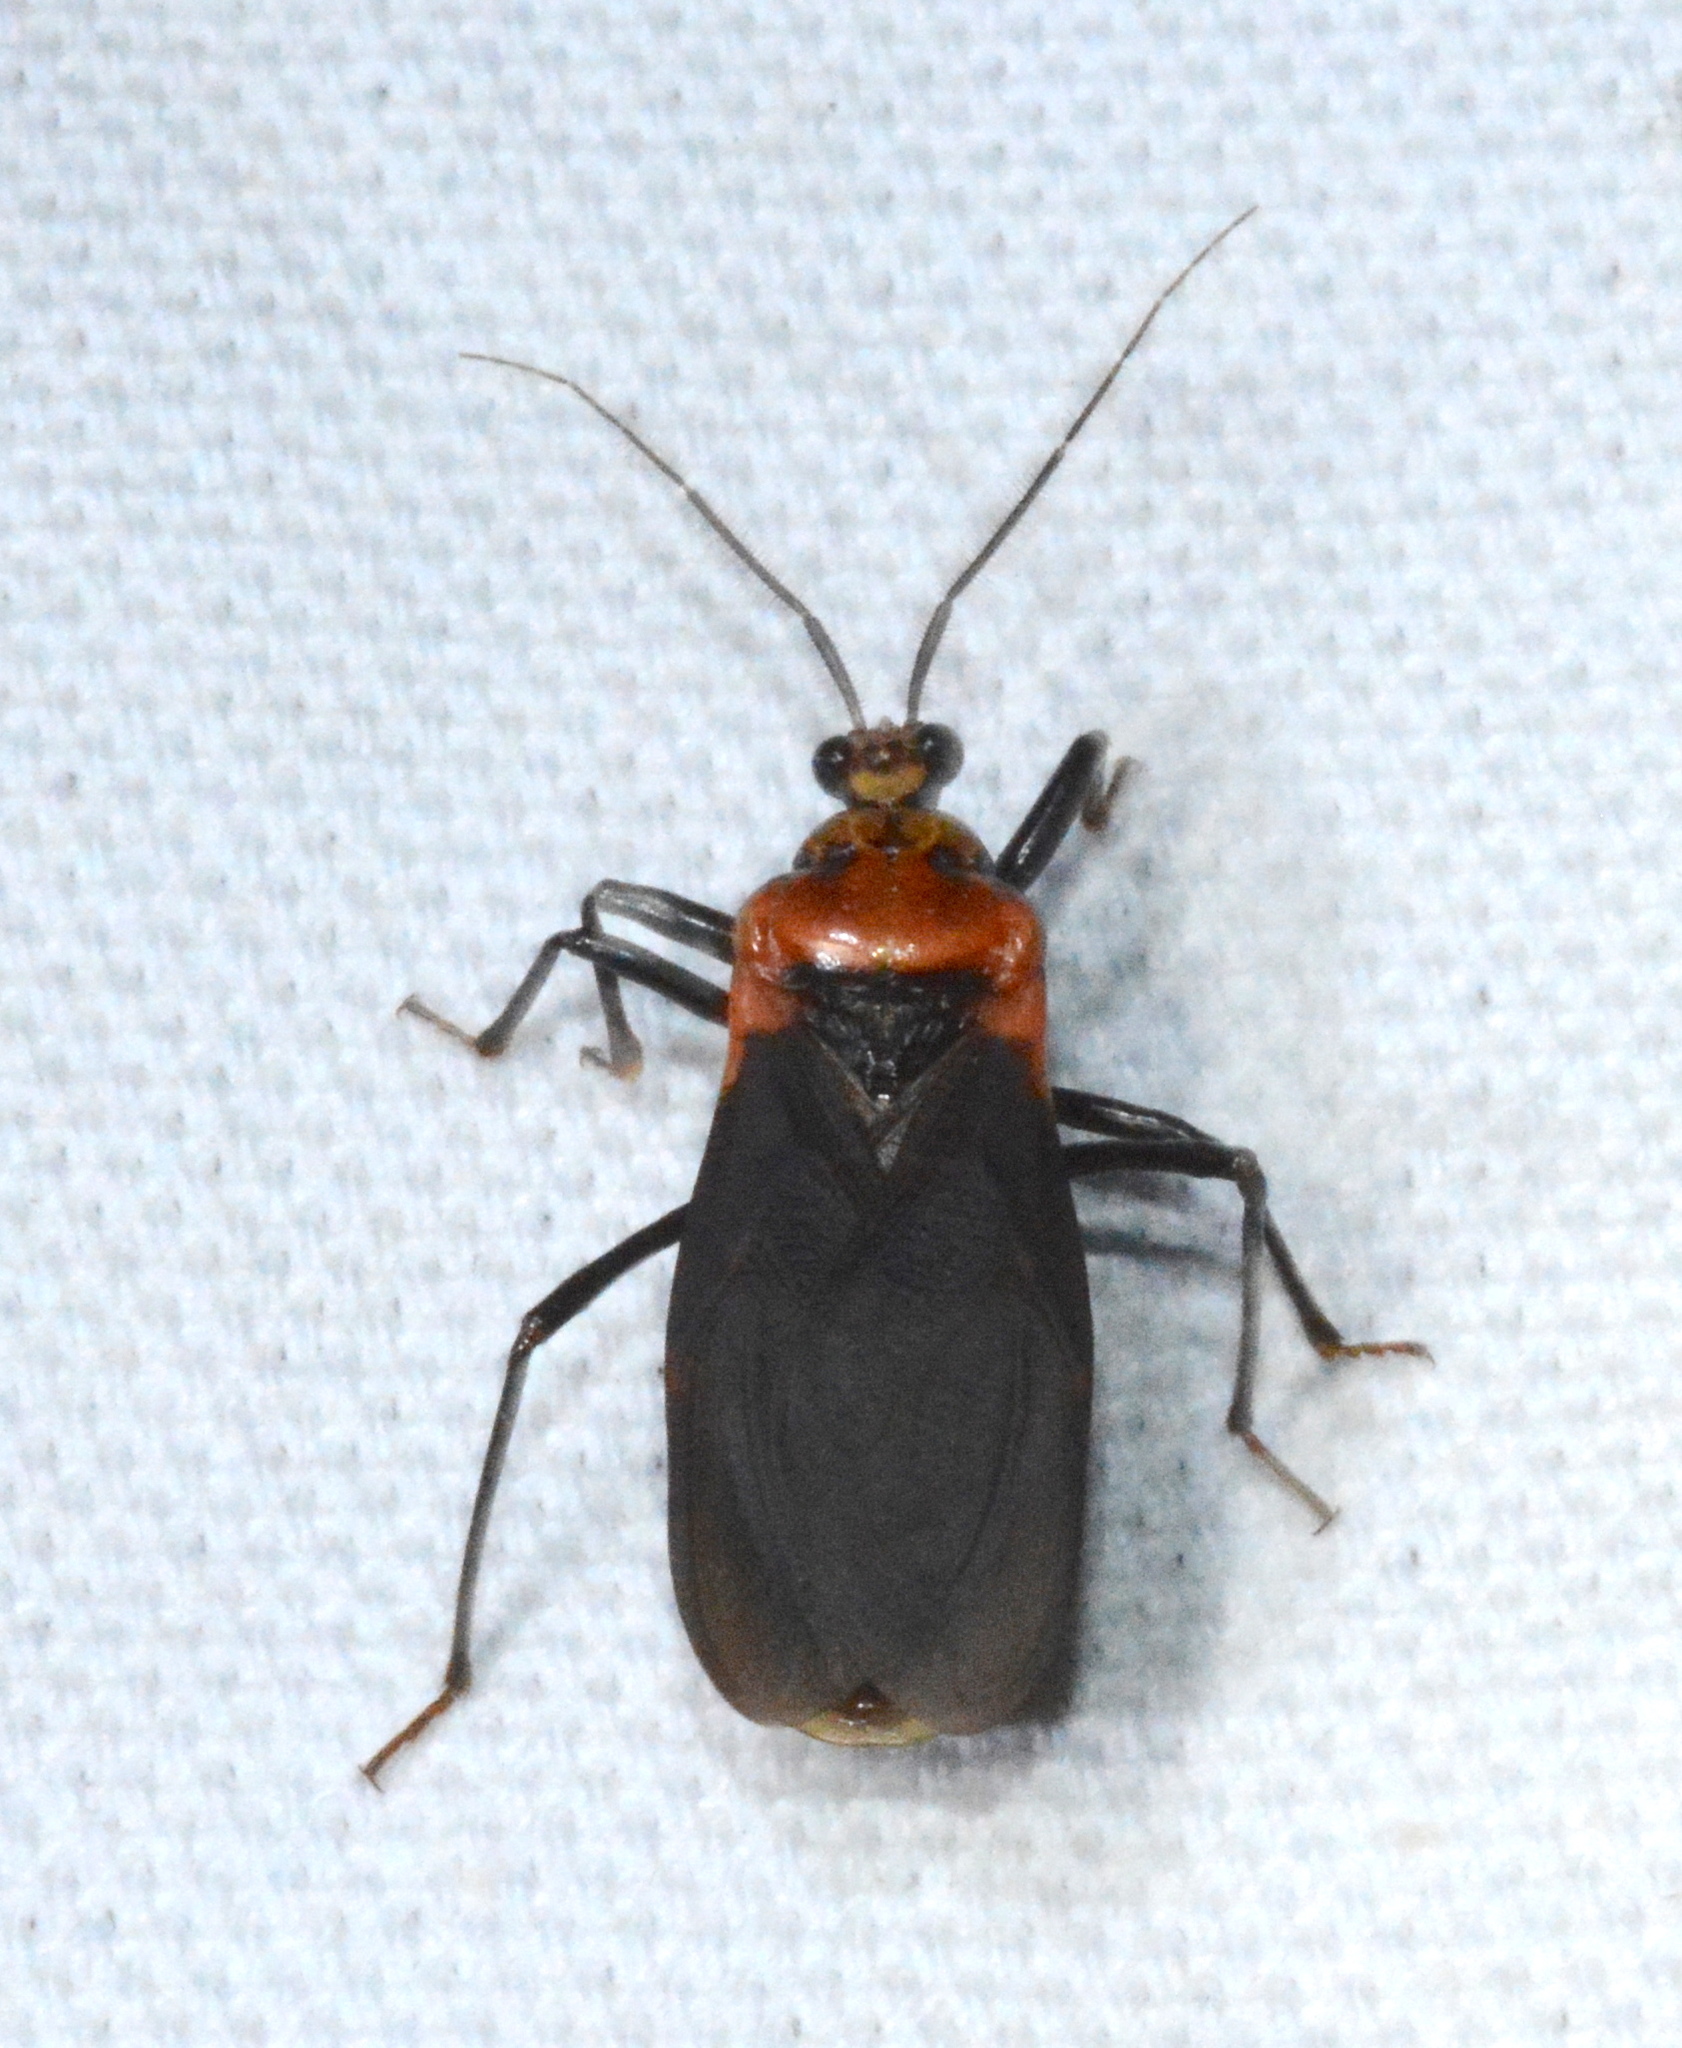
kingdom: Animalia
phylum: Arthropoda
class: Insecta
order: Hemiptera
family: Reduviidae
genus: Rhiginia
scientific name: Rhiginia cinctiventris
